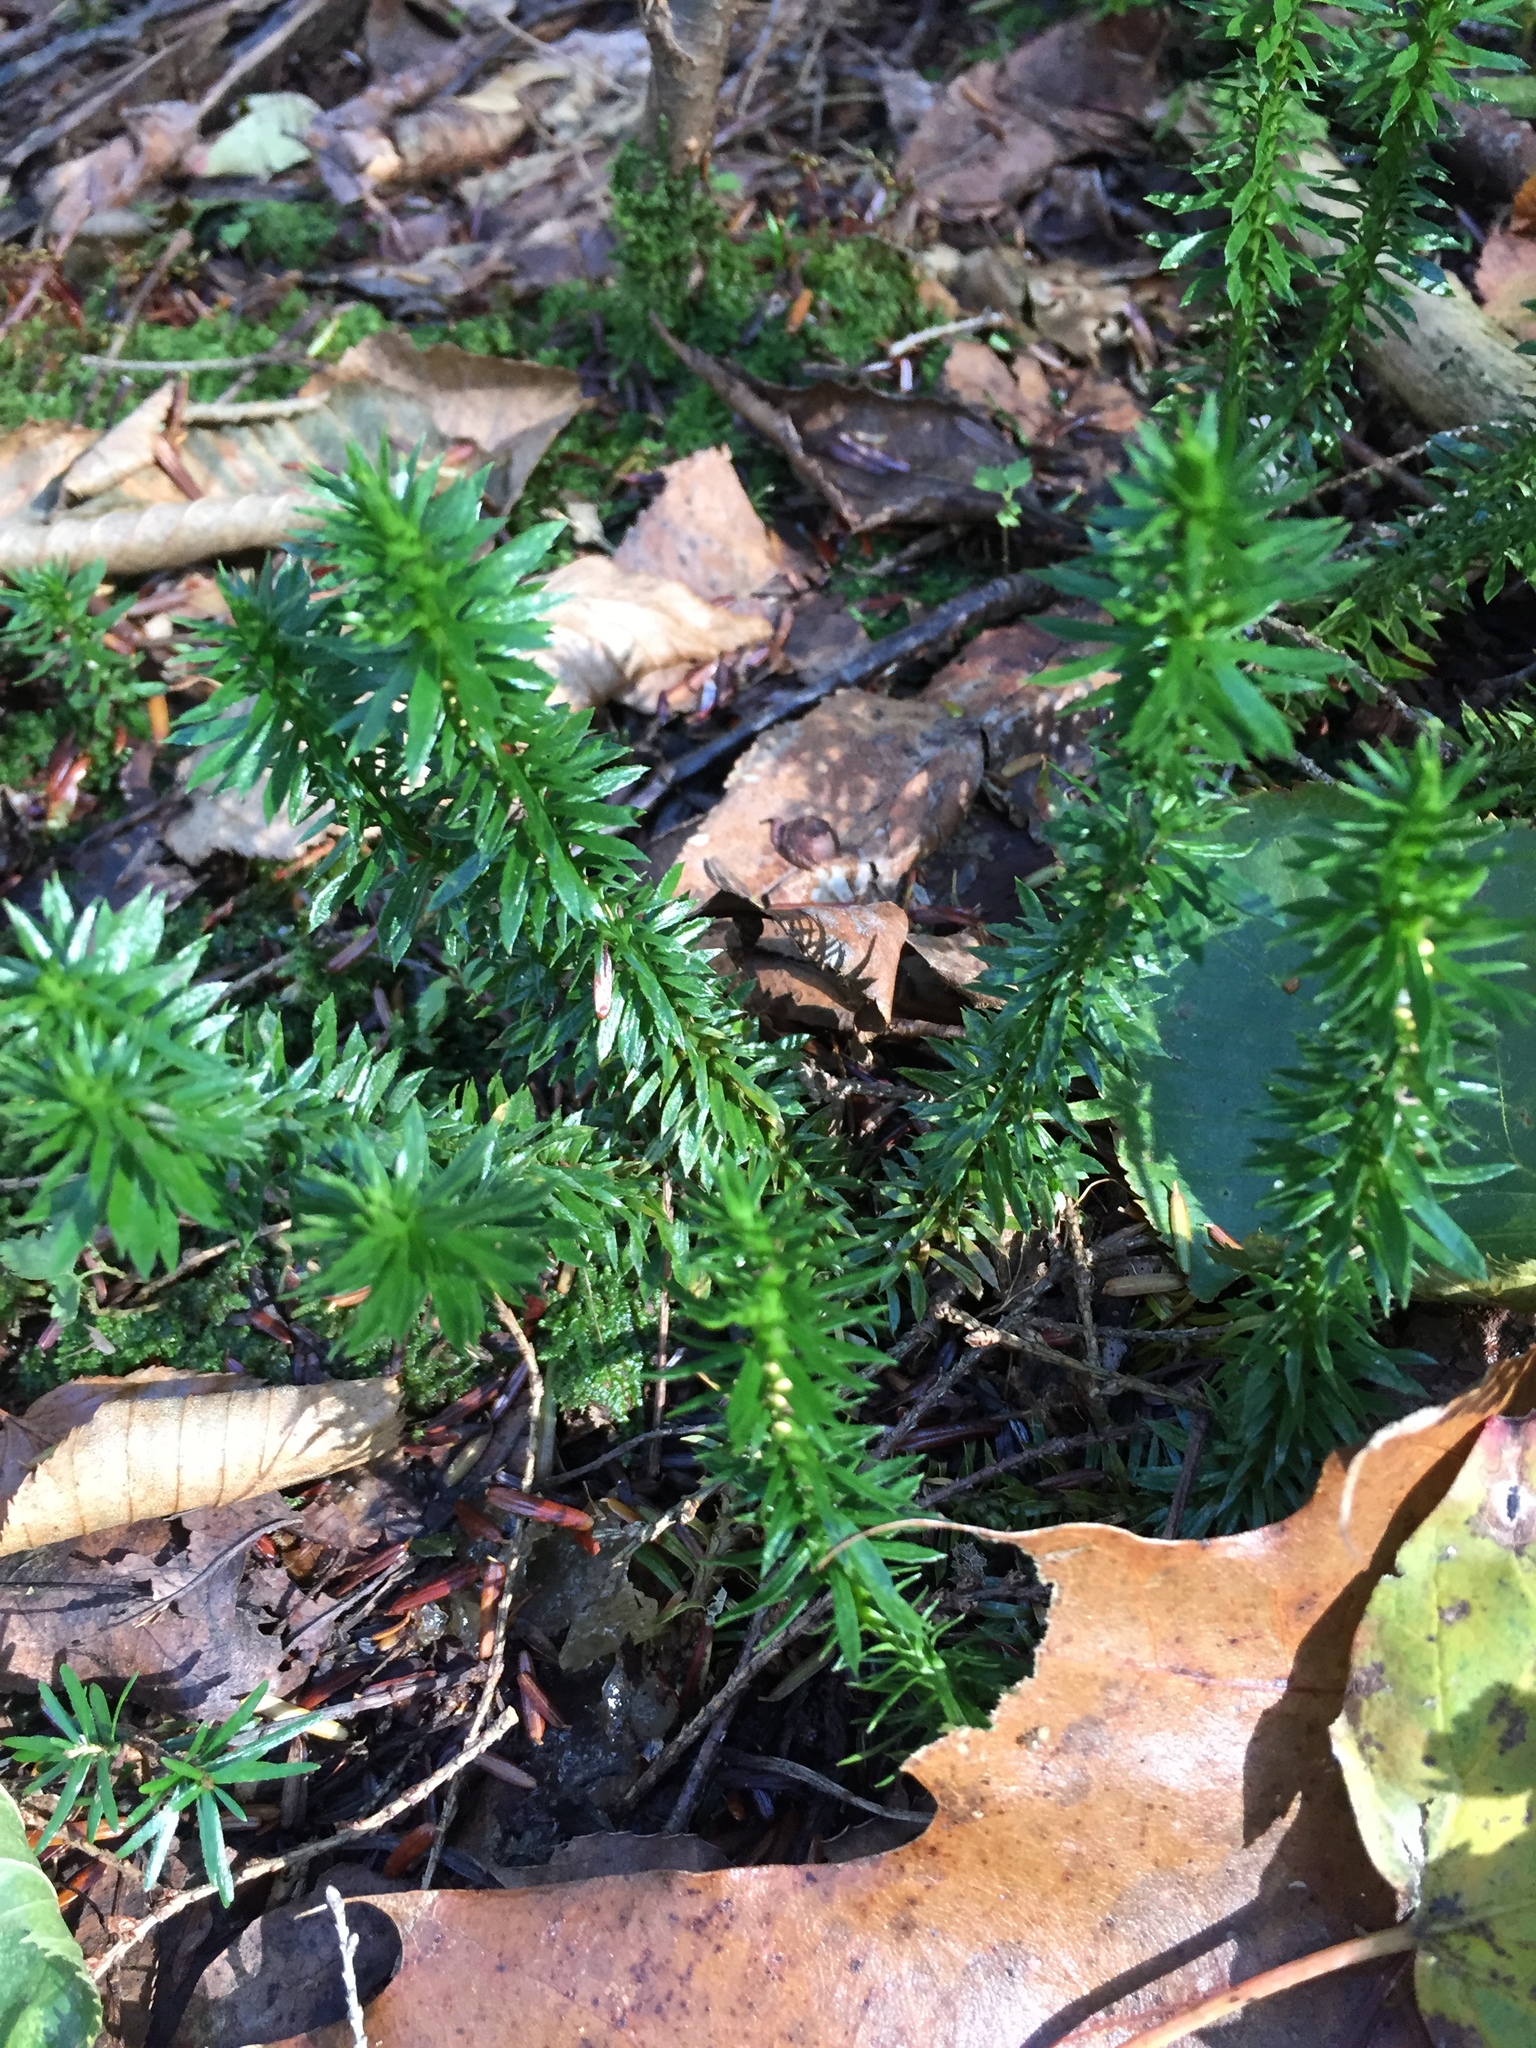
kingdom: Plantae
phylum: Tracheophyta
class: Lycopodiopsida
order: Lycopodiales
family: Lycopodiaceae
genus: Huperzia
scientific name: Huperzia lucidula
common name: Shining clubmoss
